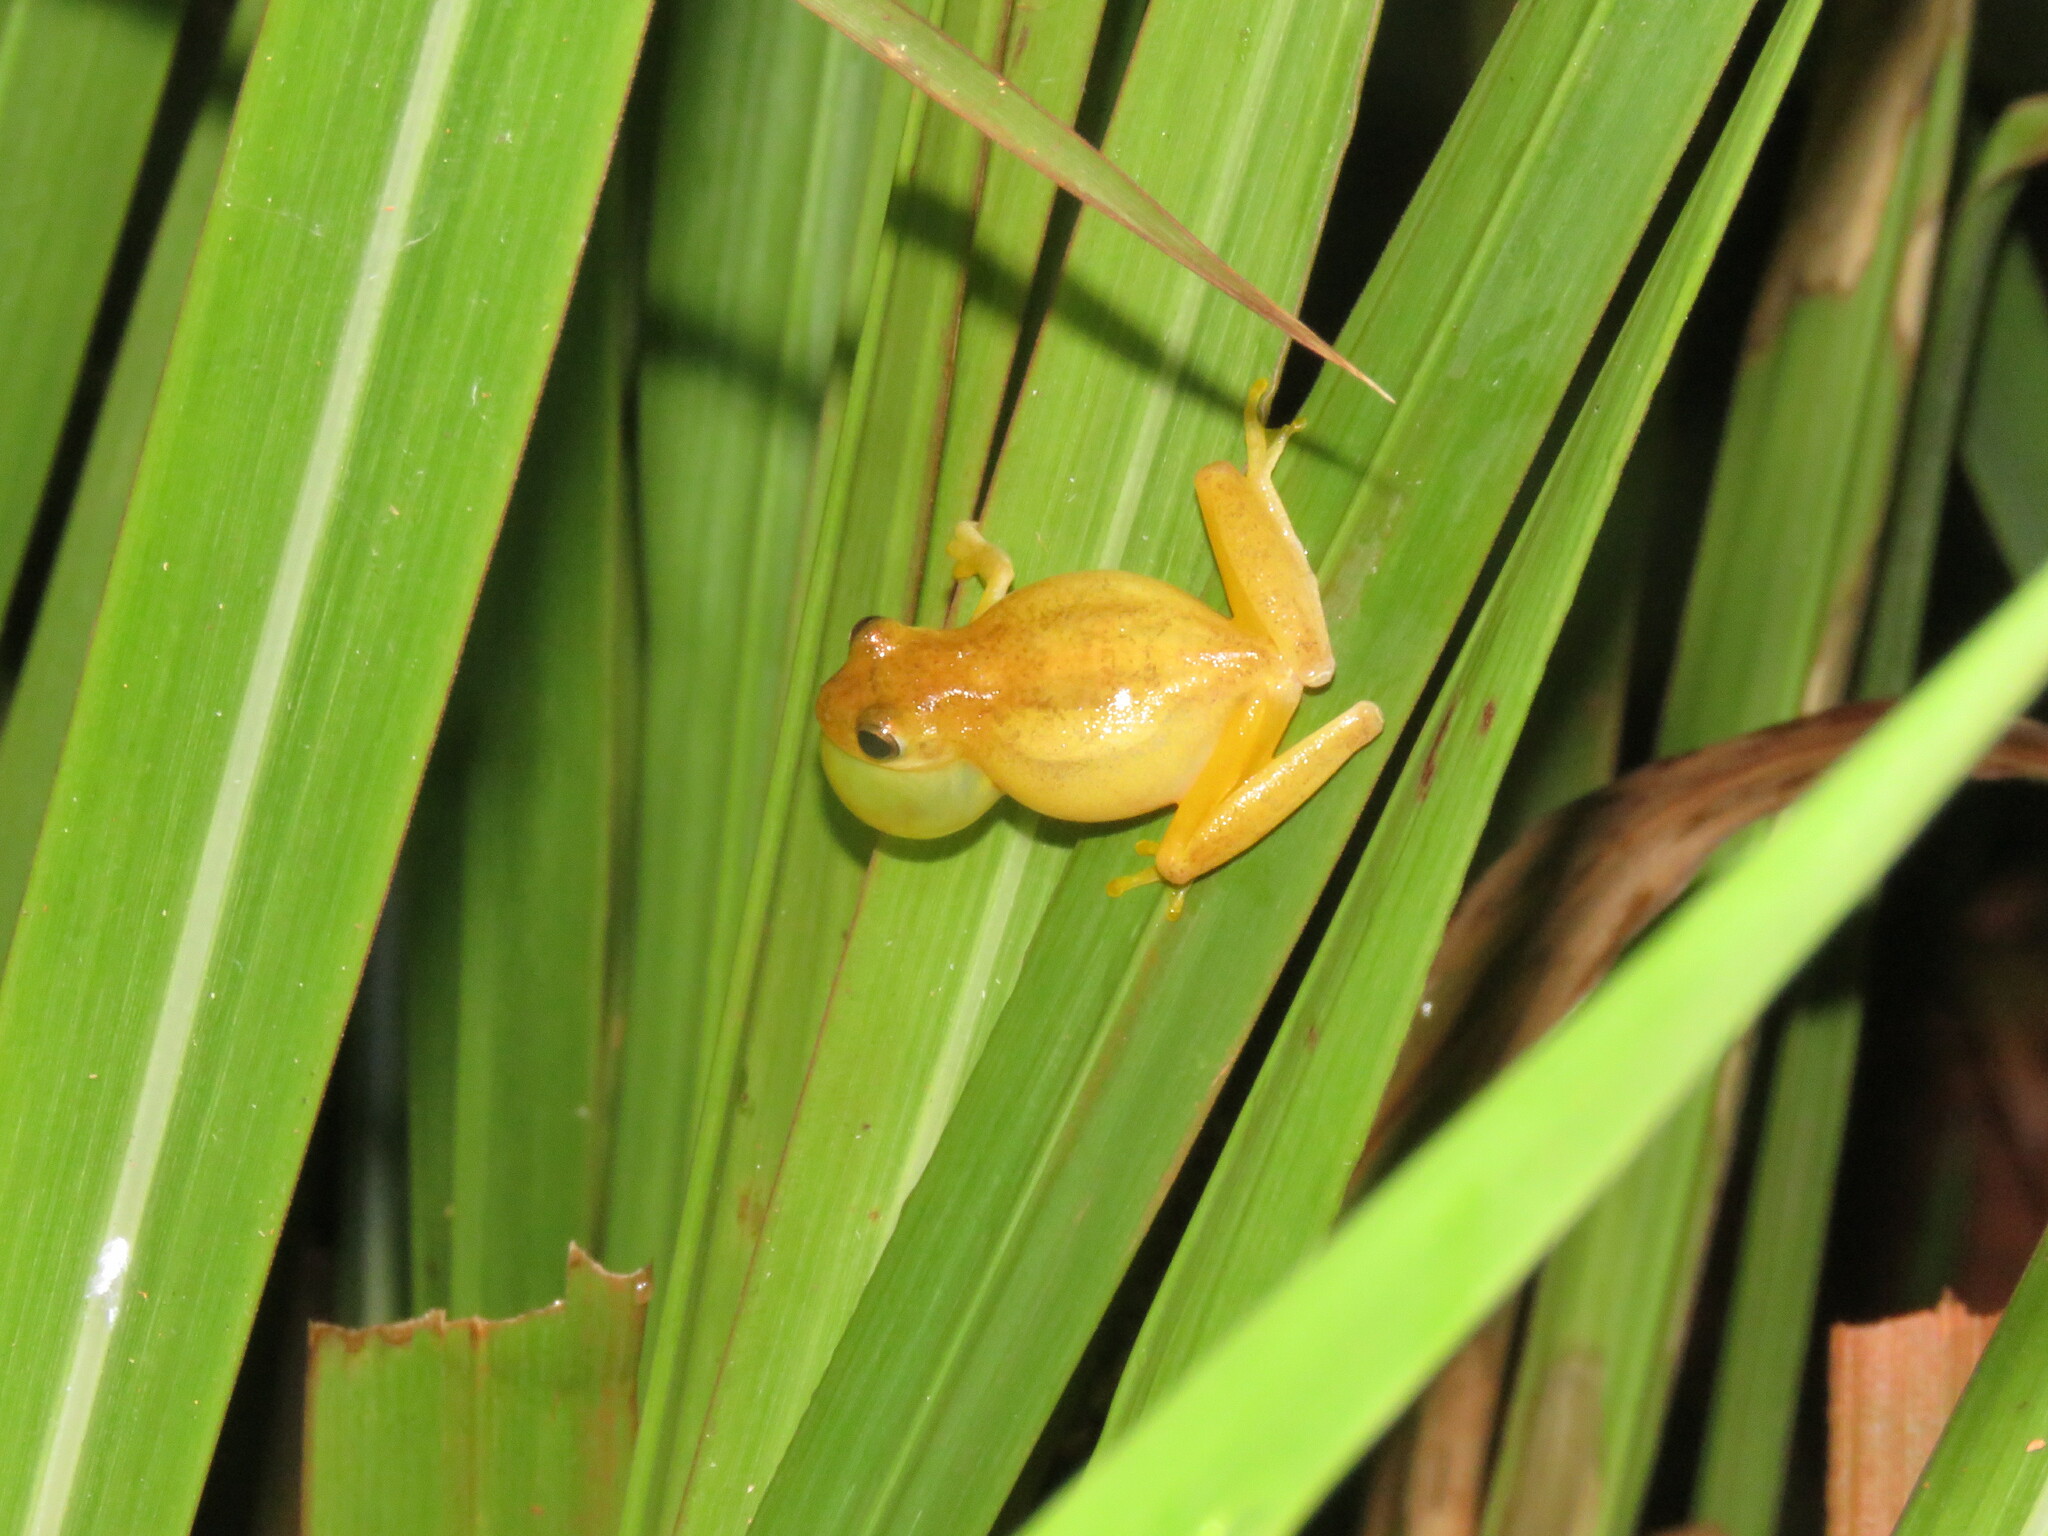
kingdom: Animalia
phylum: Chordata
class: Amphibia
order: Anura
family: Hylidae
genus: Dendropsophus
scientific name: Dendropsophus leali
